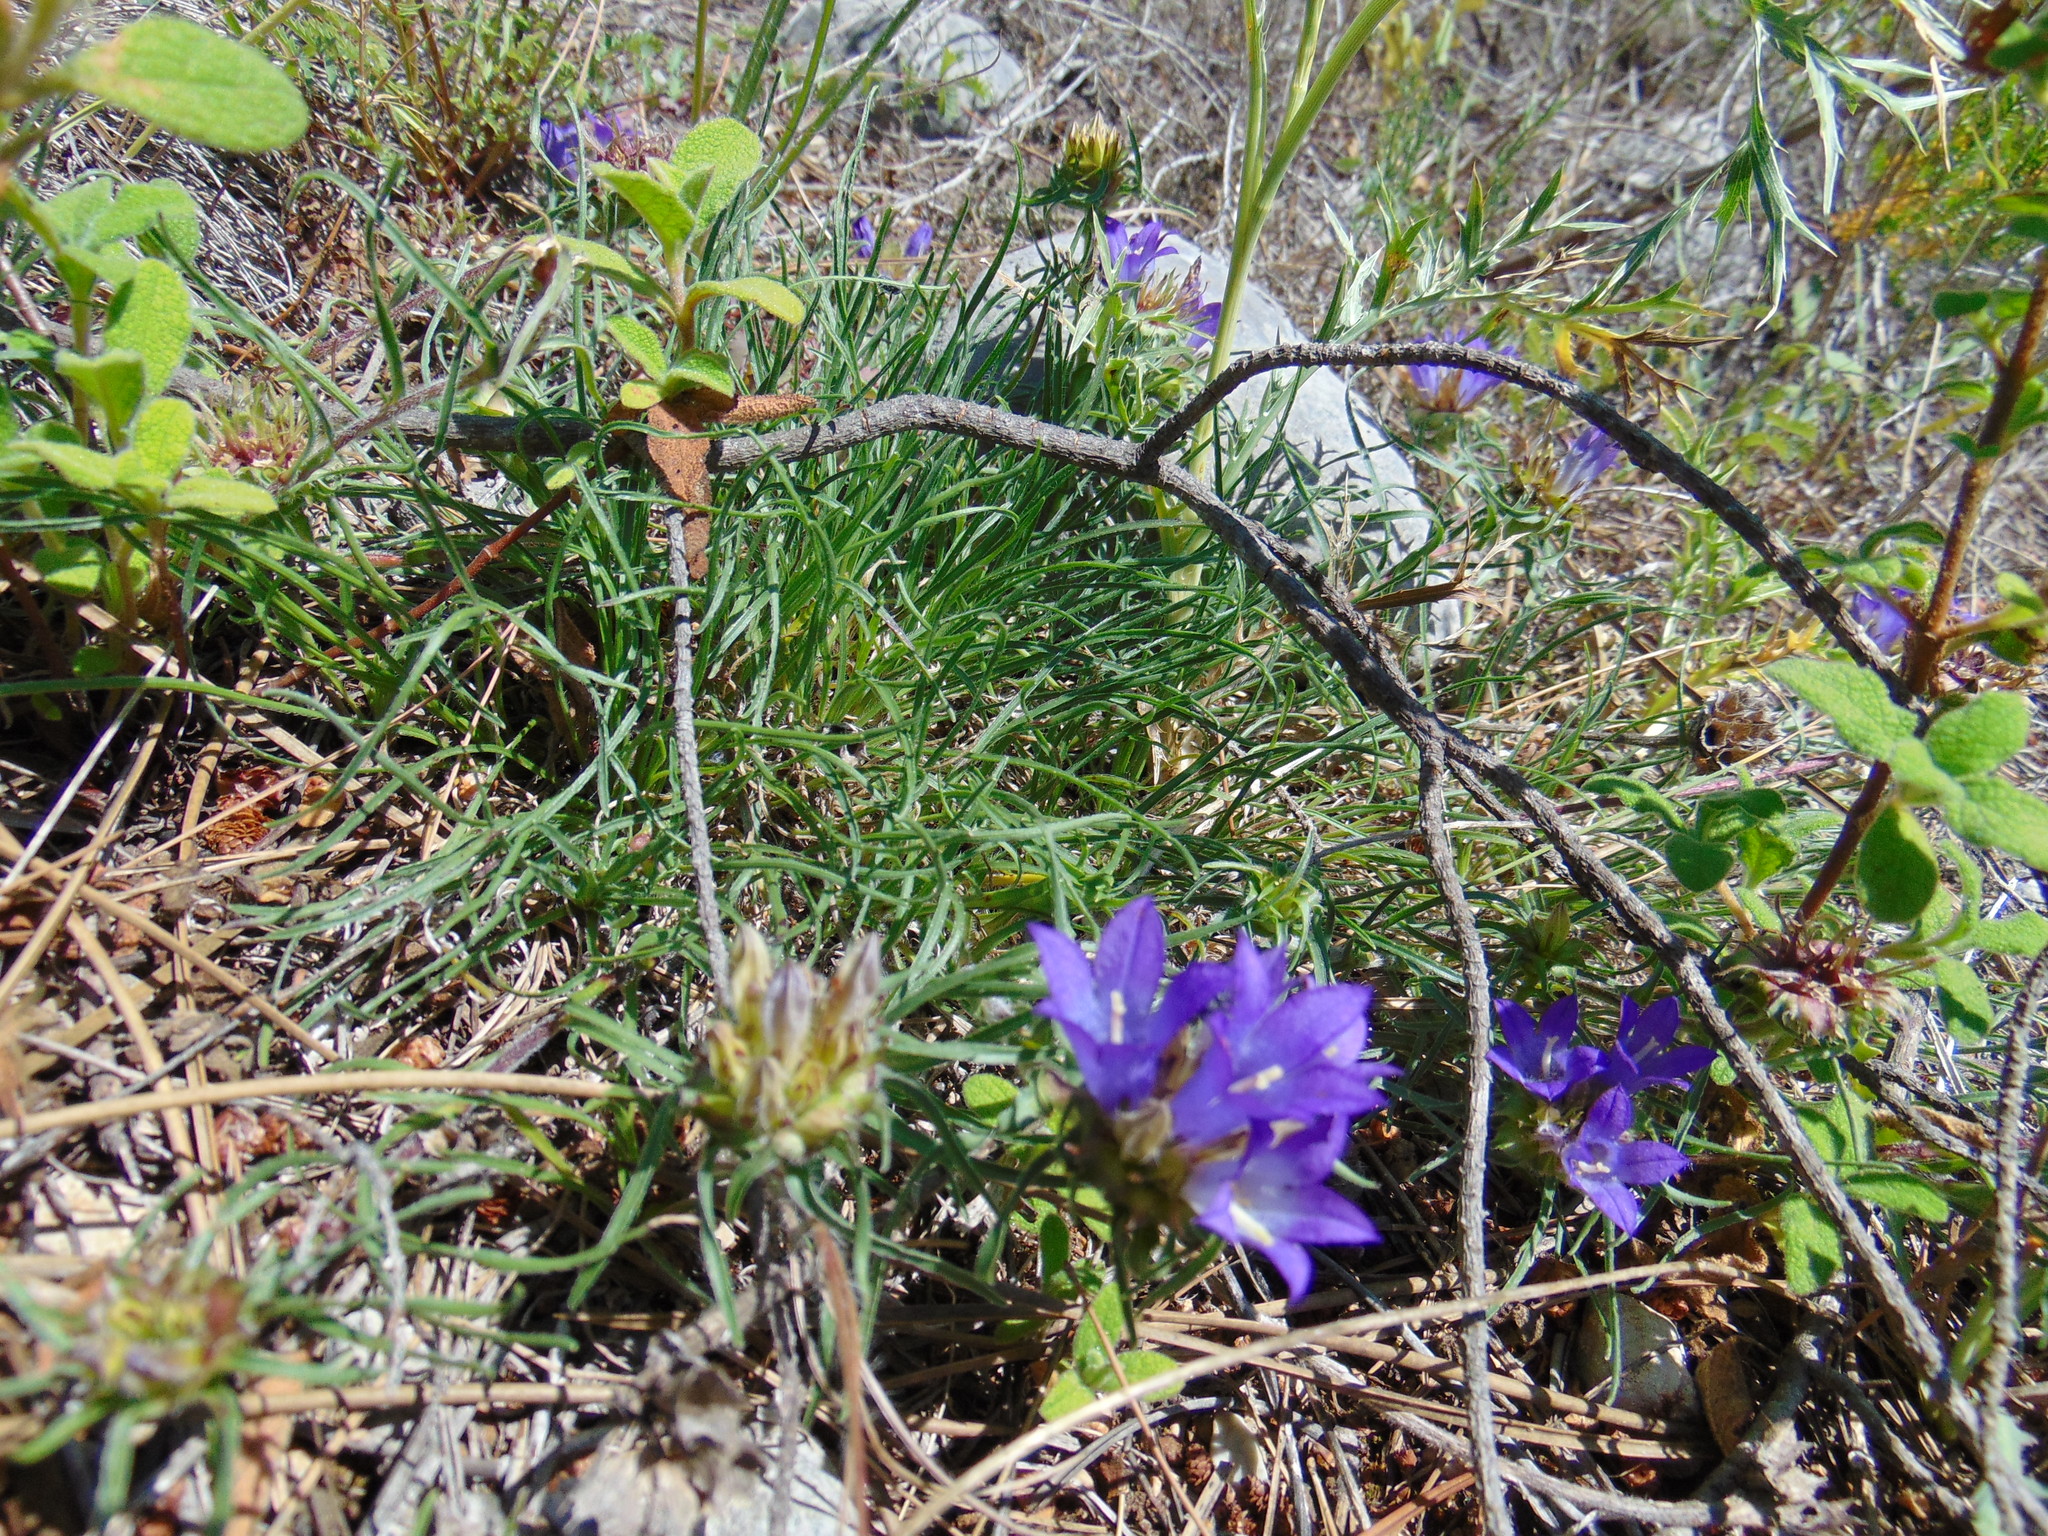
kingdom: Plantae
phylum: Tracheophyta
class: Magnoliopsida
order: Asterales
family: Campanulaceae
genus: Edraianthus
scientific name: Edraianthus tenuifolius
